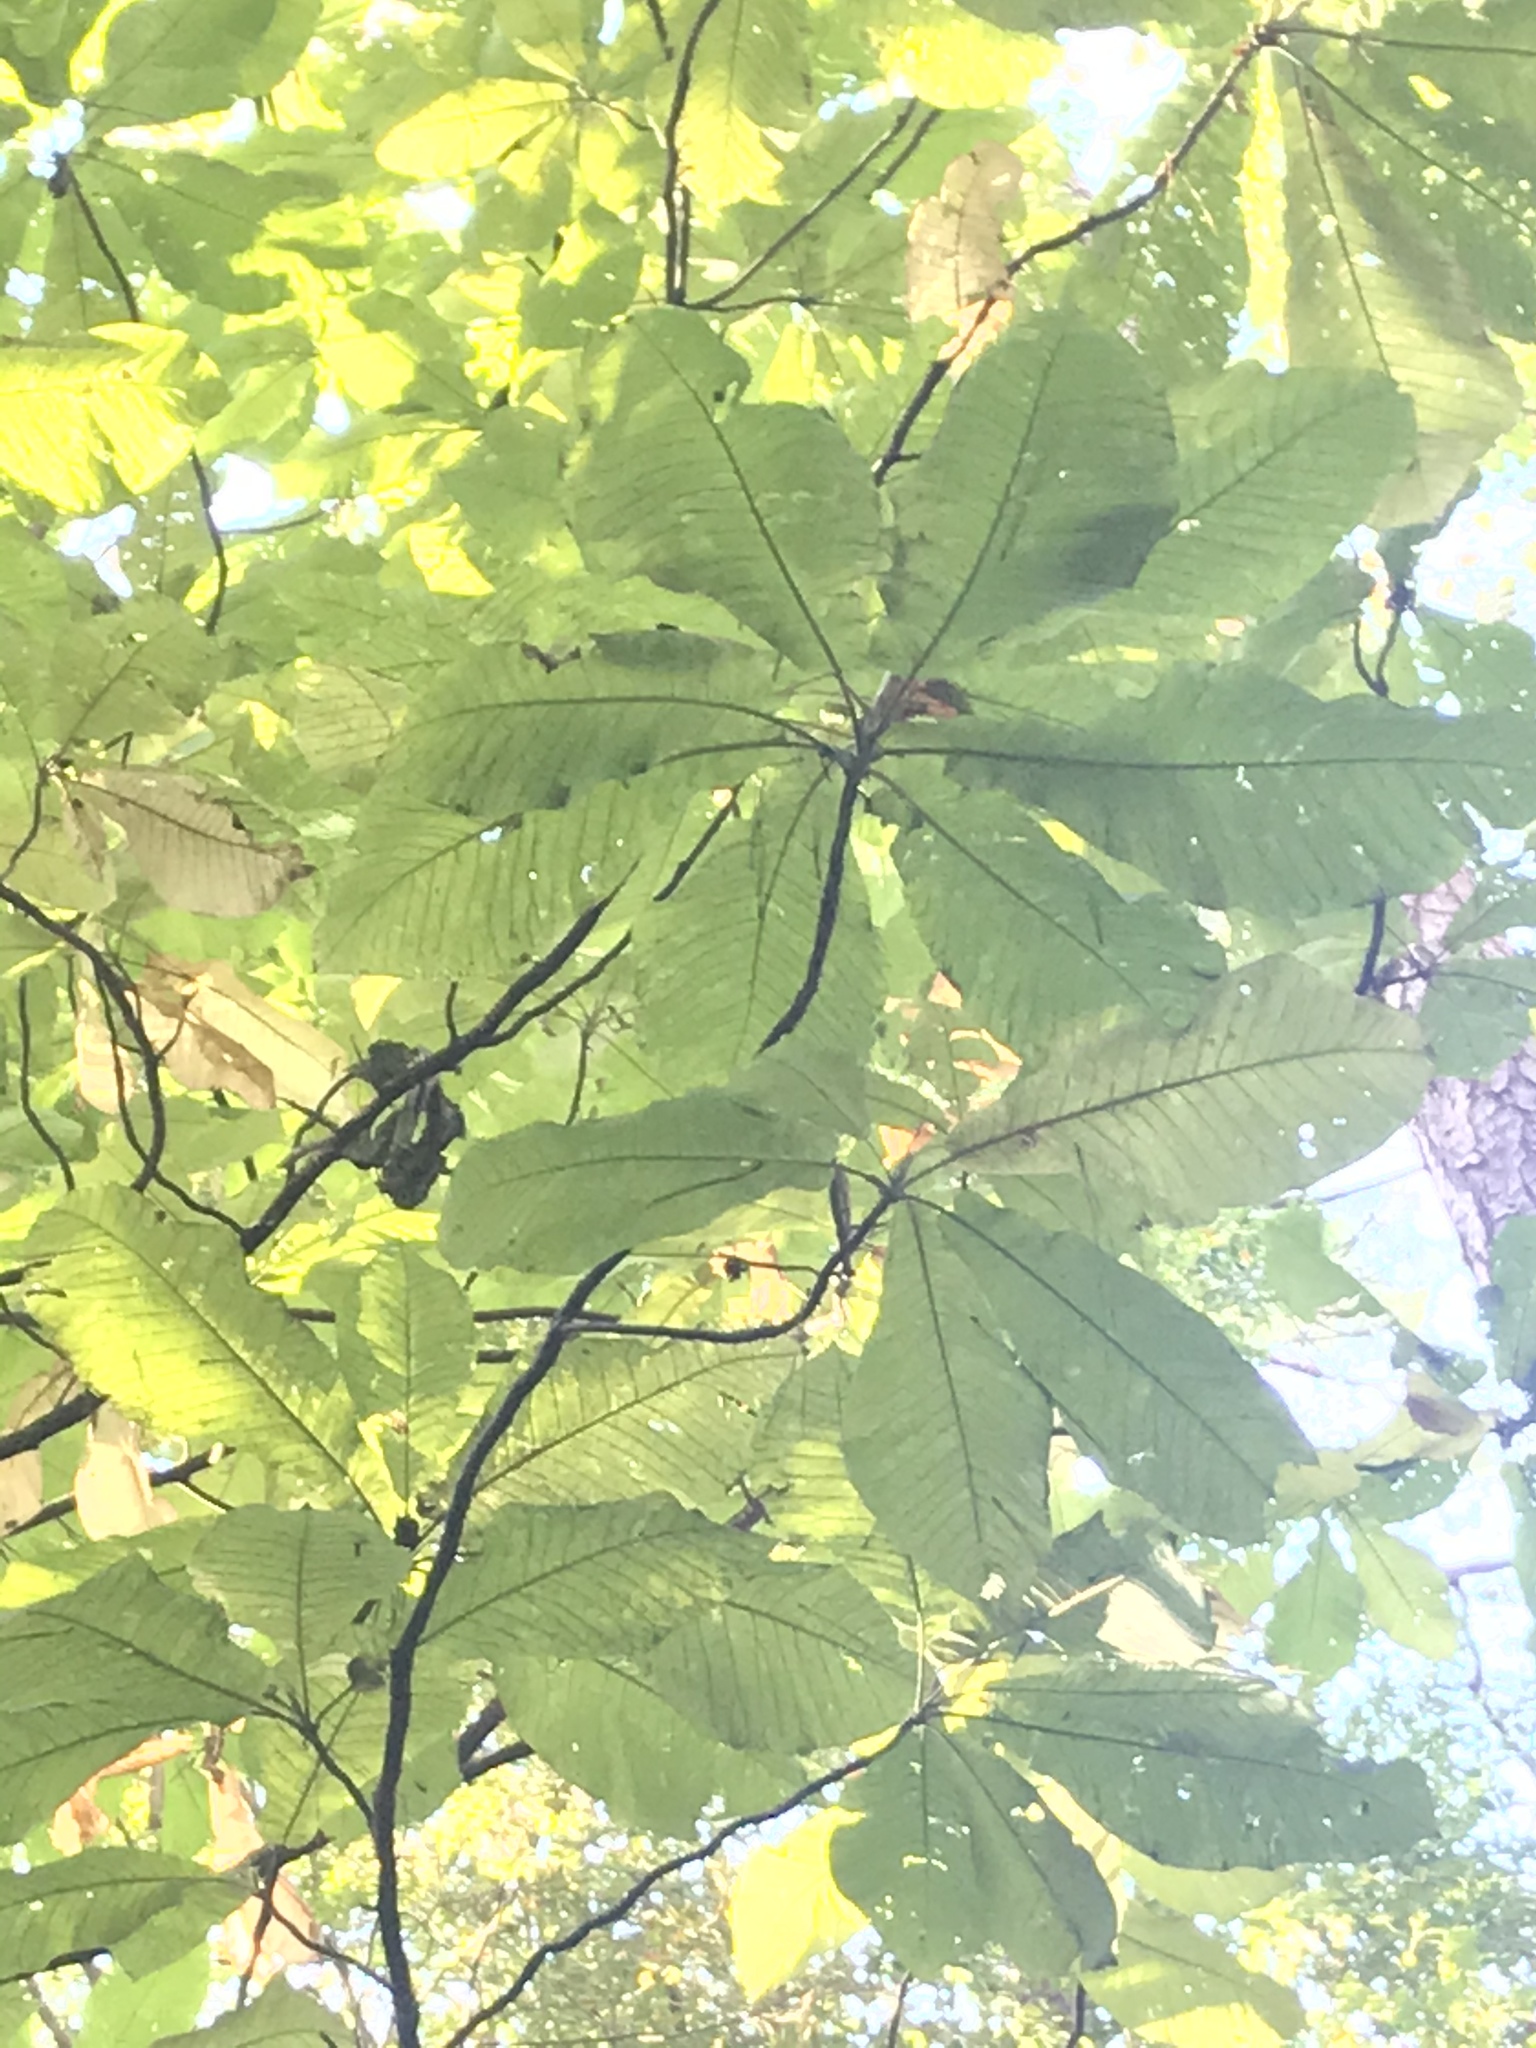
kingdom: Plantae
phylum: Tracheophyta
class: Magnoliopsida
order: Magnoliales
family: Magnoliaceae
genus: Magnolia
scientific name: Magnolia macrophylla
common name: Big-leaf magnolia
